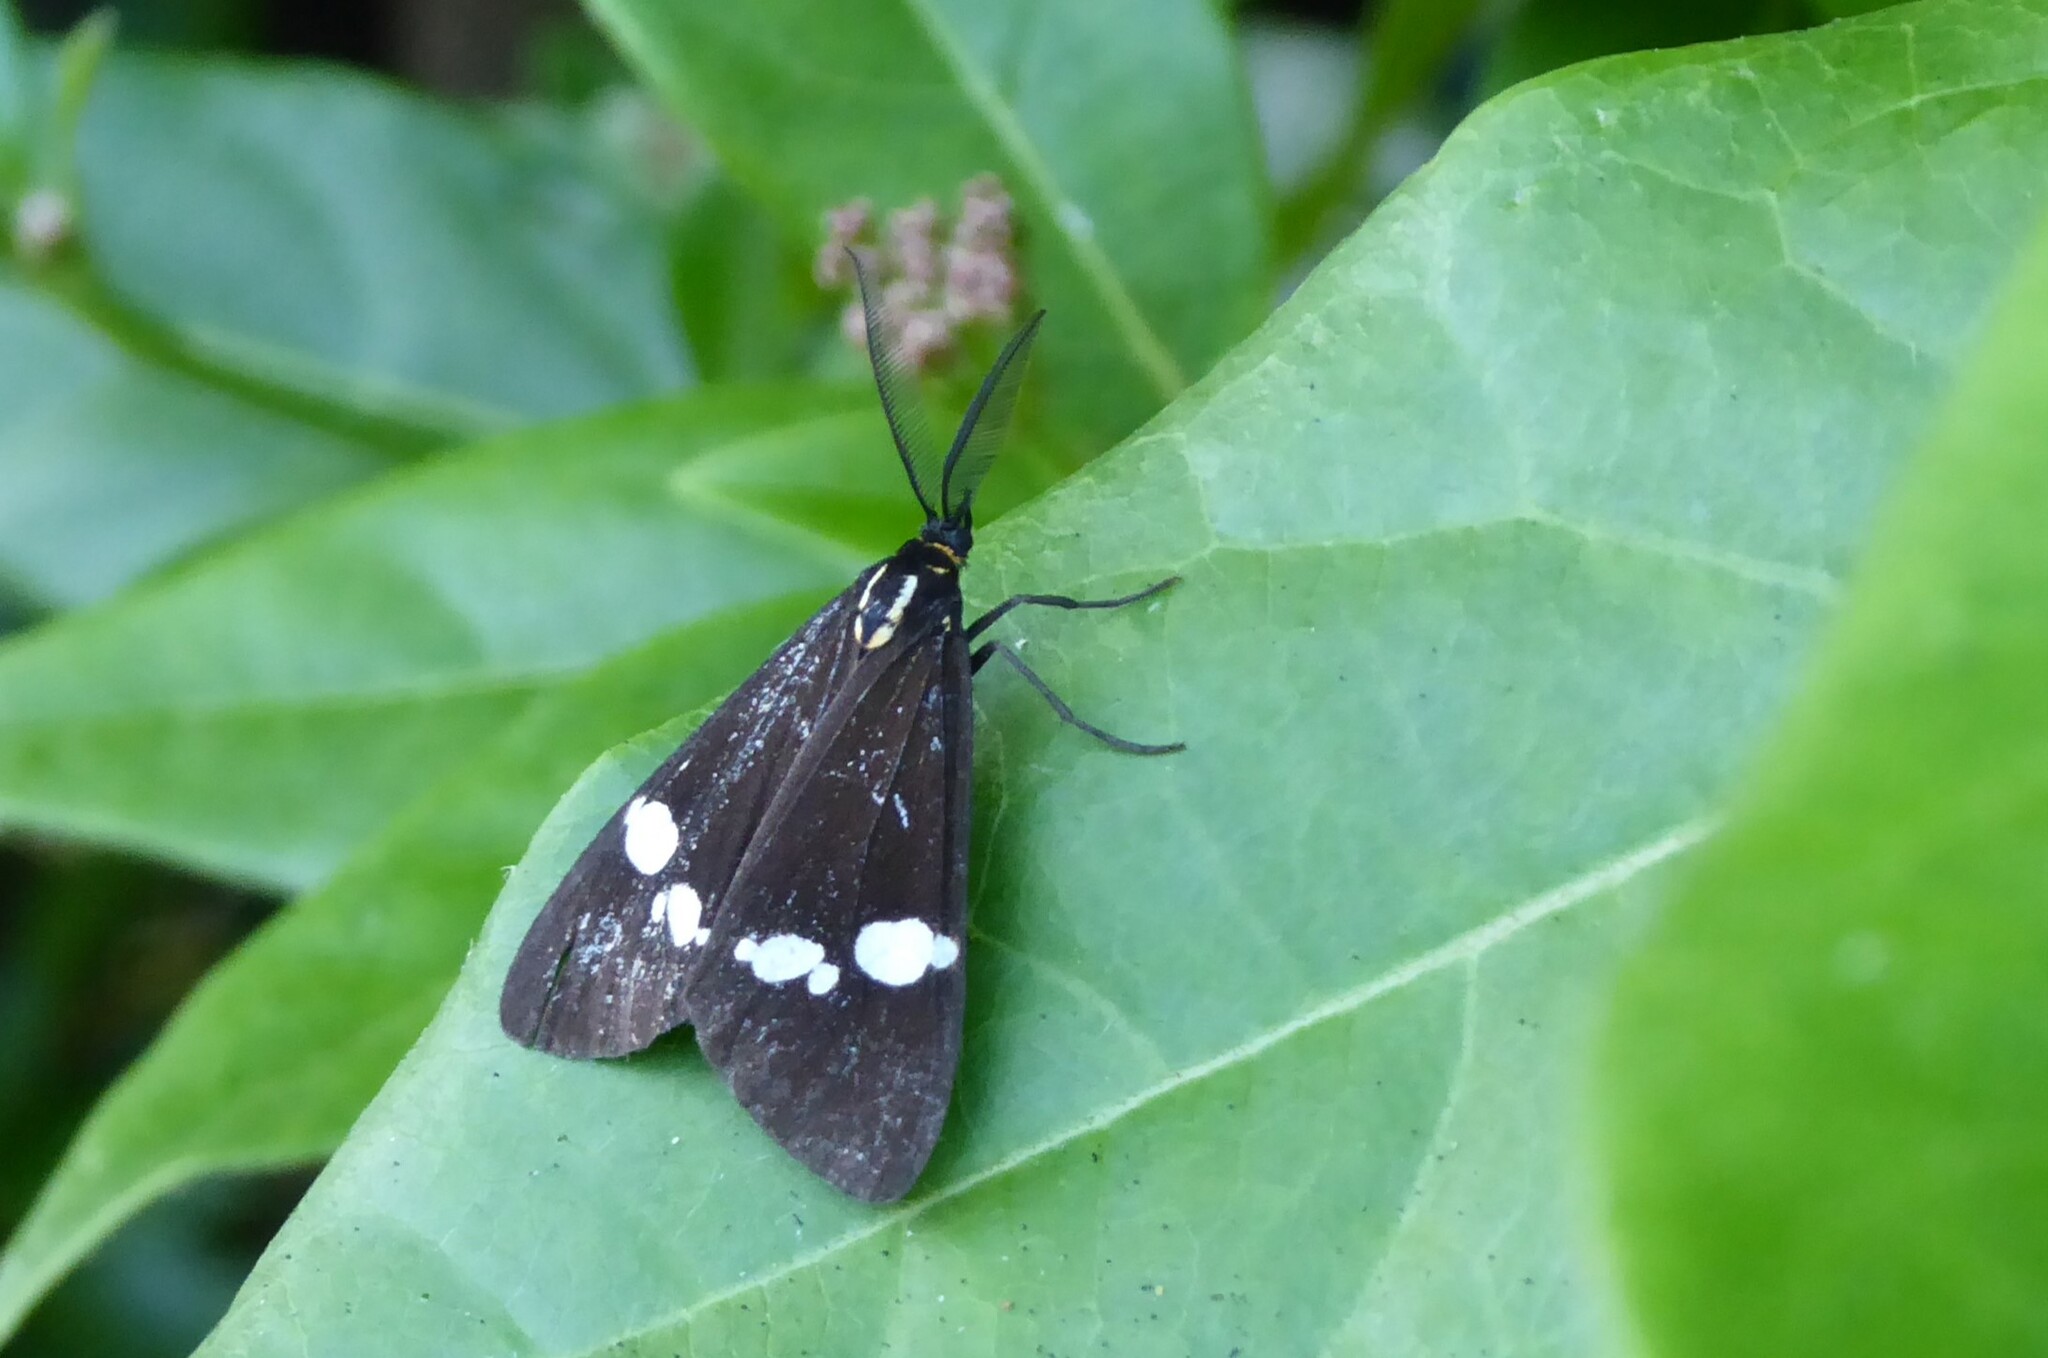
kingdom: Animalia
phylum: Arthropoda
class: Insecta
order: Lepidoptera
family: Erebidae
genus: Nyctemera
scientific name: Nyctemera annulatum
